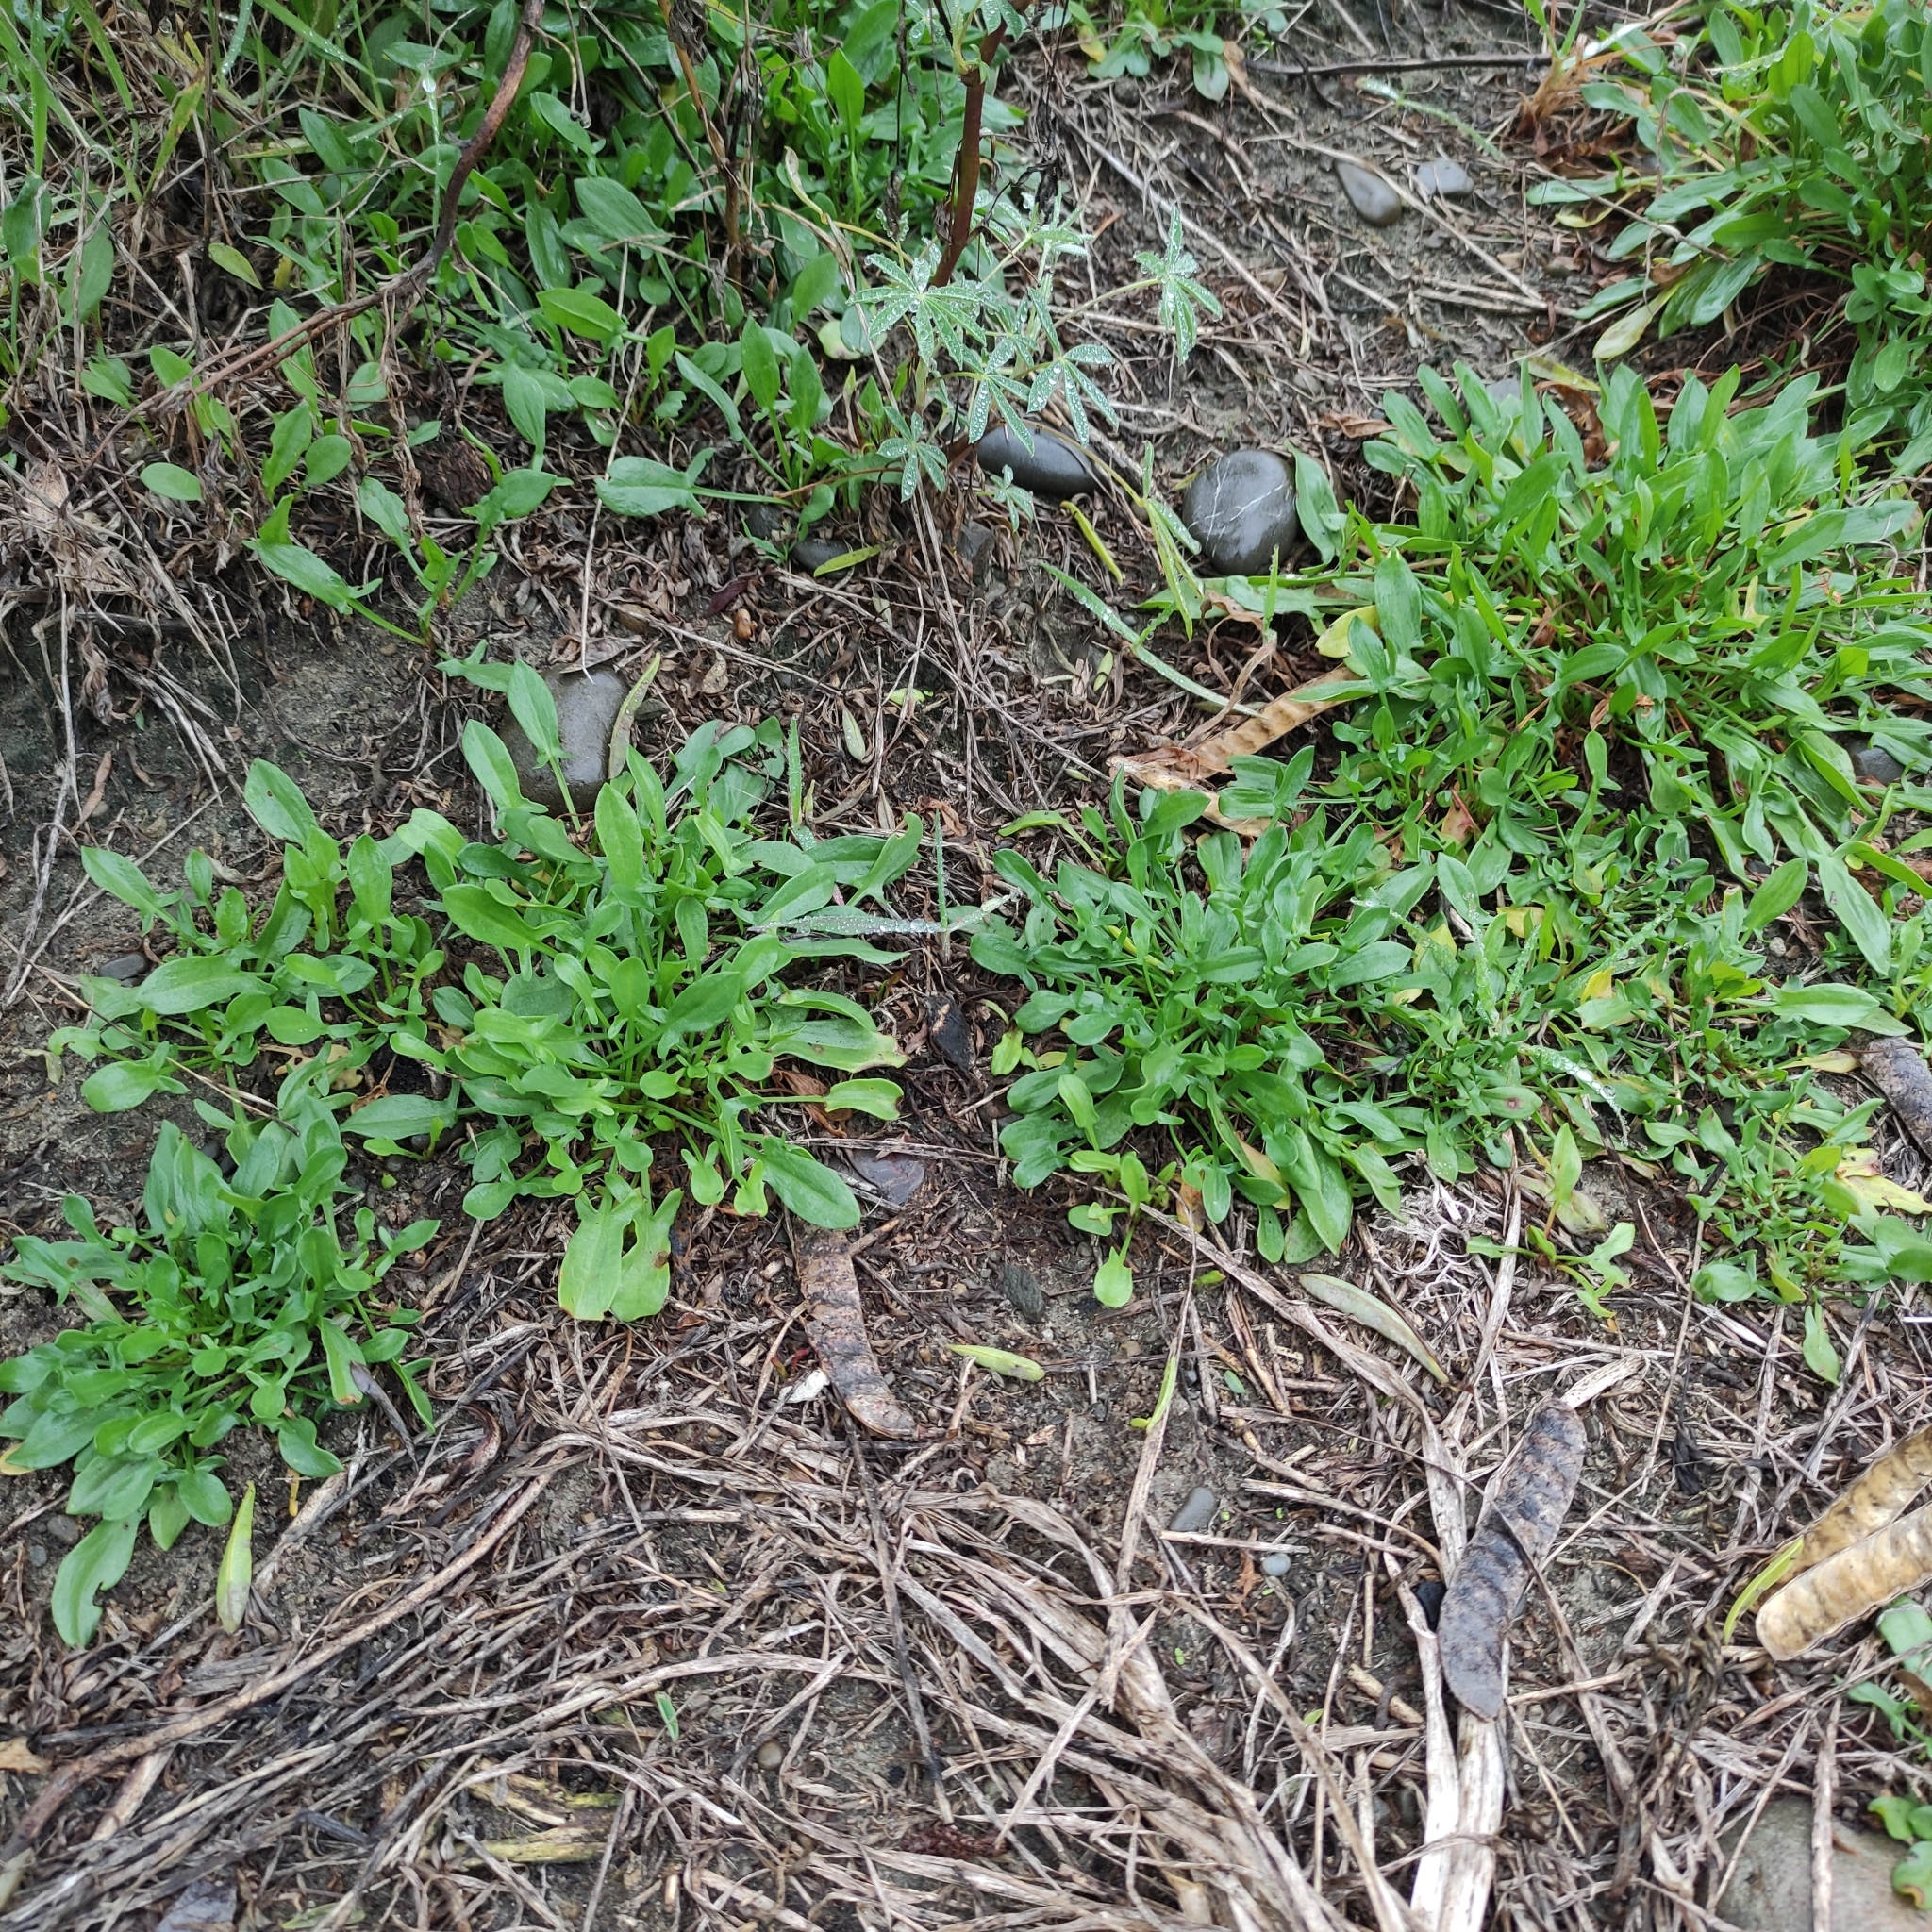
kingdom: Plantae
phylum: Tracheophyta
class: Magnoliopsida
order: Caryophyllales
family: Polygonaceae
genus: Rumex
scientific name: Rumex acetosella
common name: Common sheep sorrel
